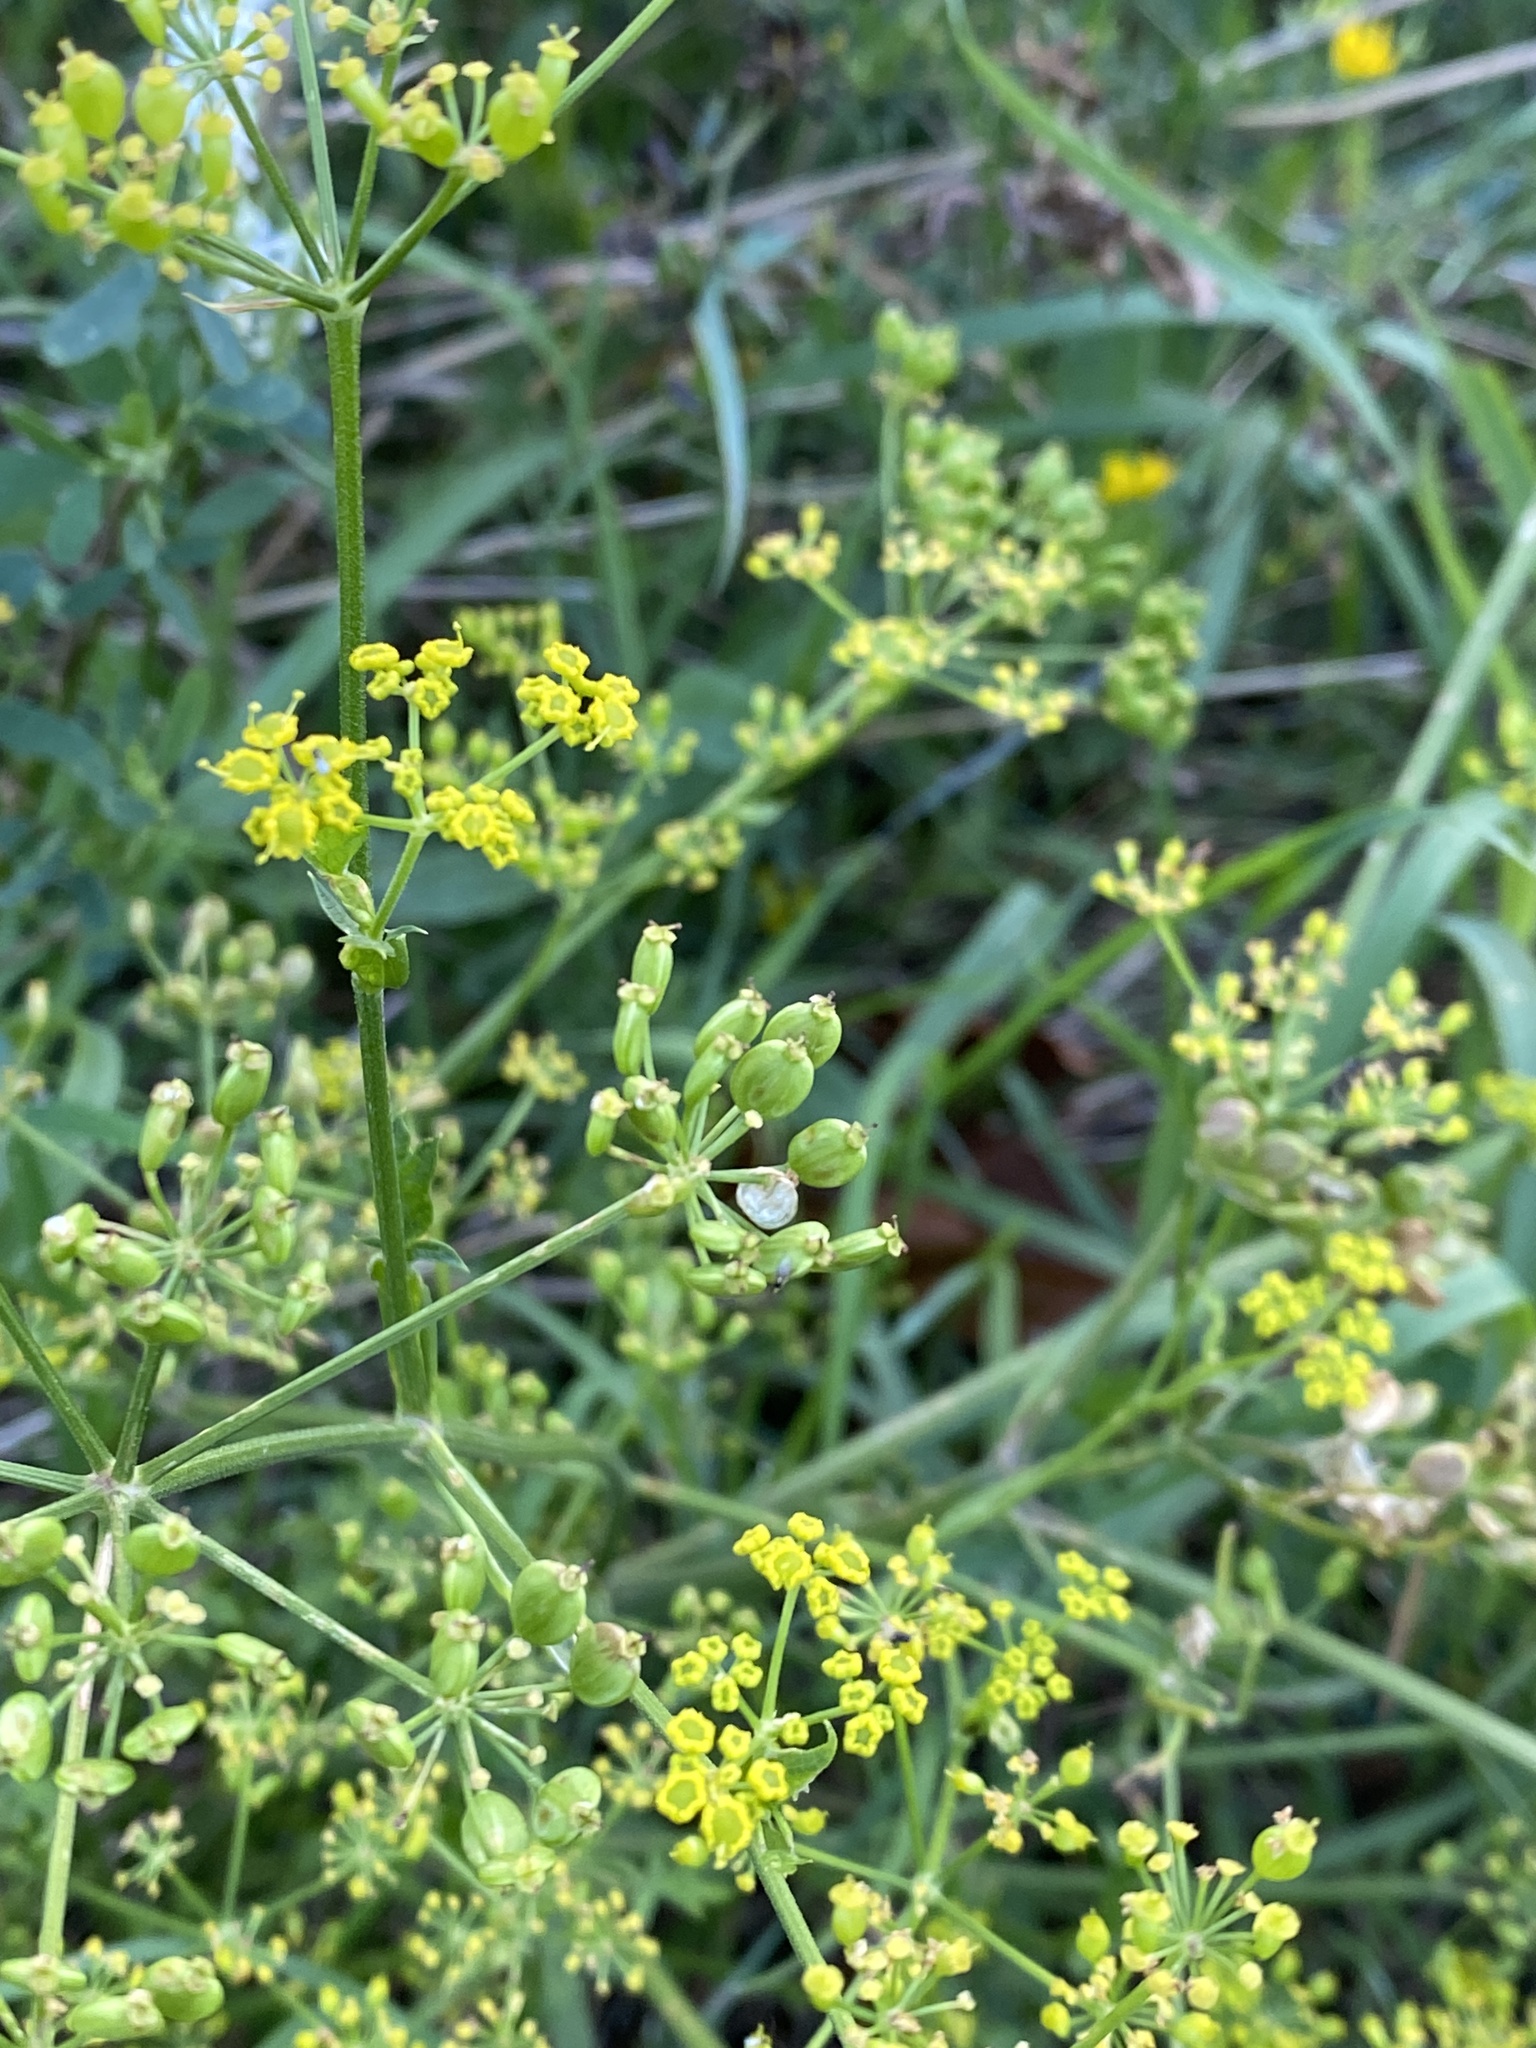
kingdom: Plantae
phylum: Tracheophyta
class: Magnoliopsida
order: Apiales
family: Apiaceae
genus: Pastinaca
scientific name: Pastinaca sativa
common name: Wild parsnip
